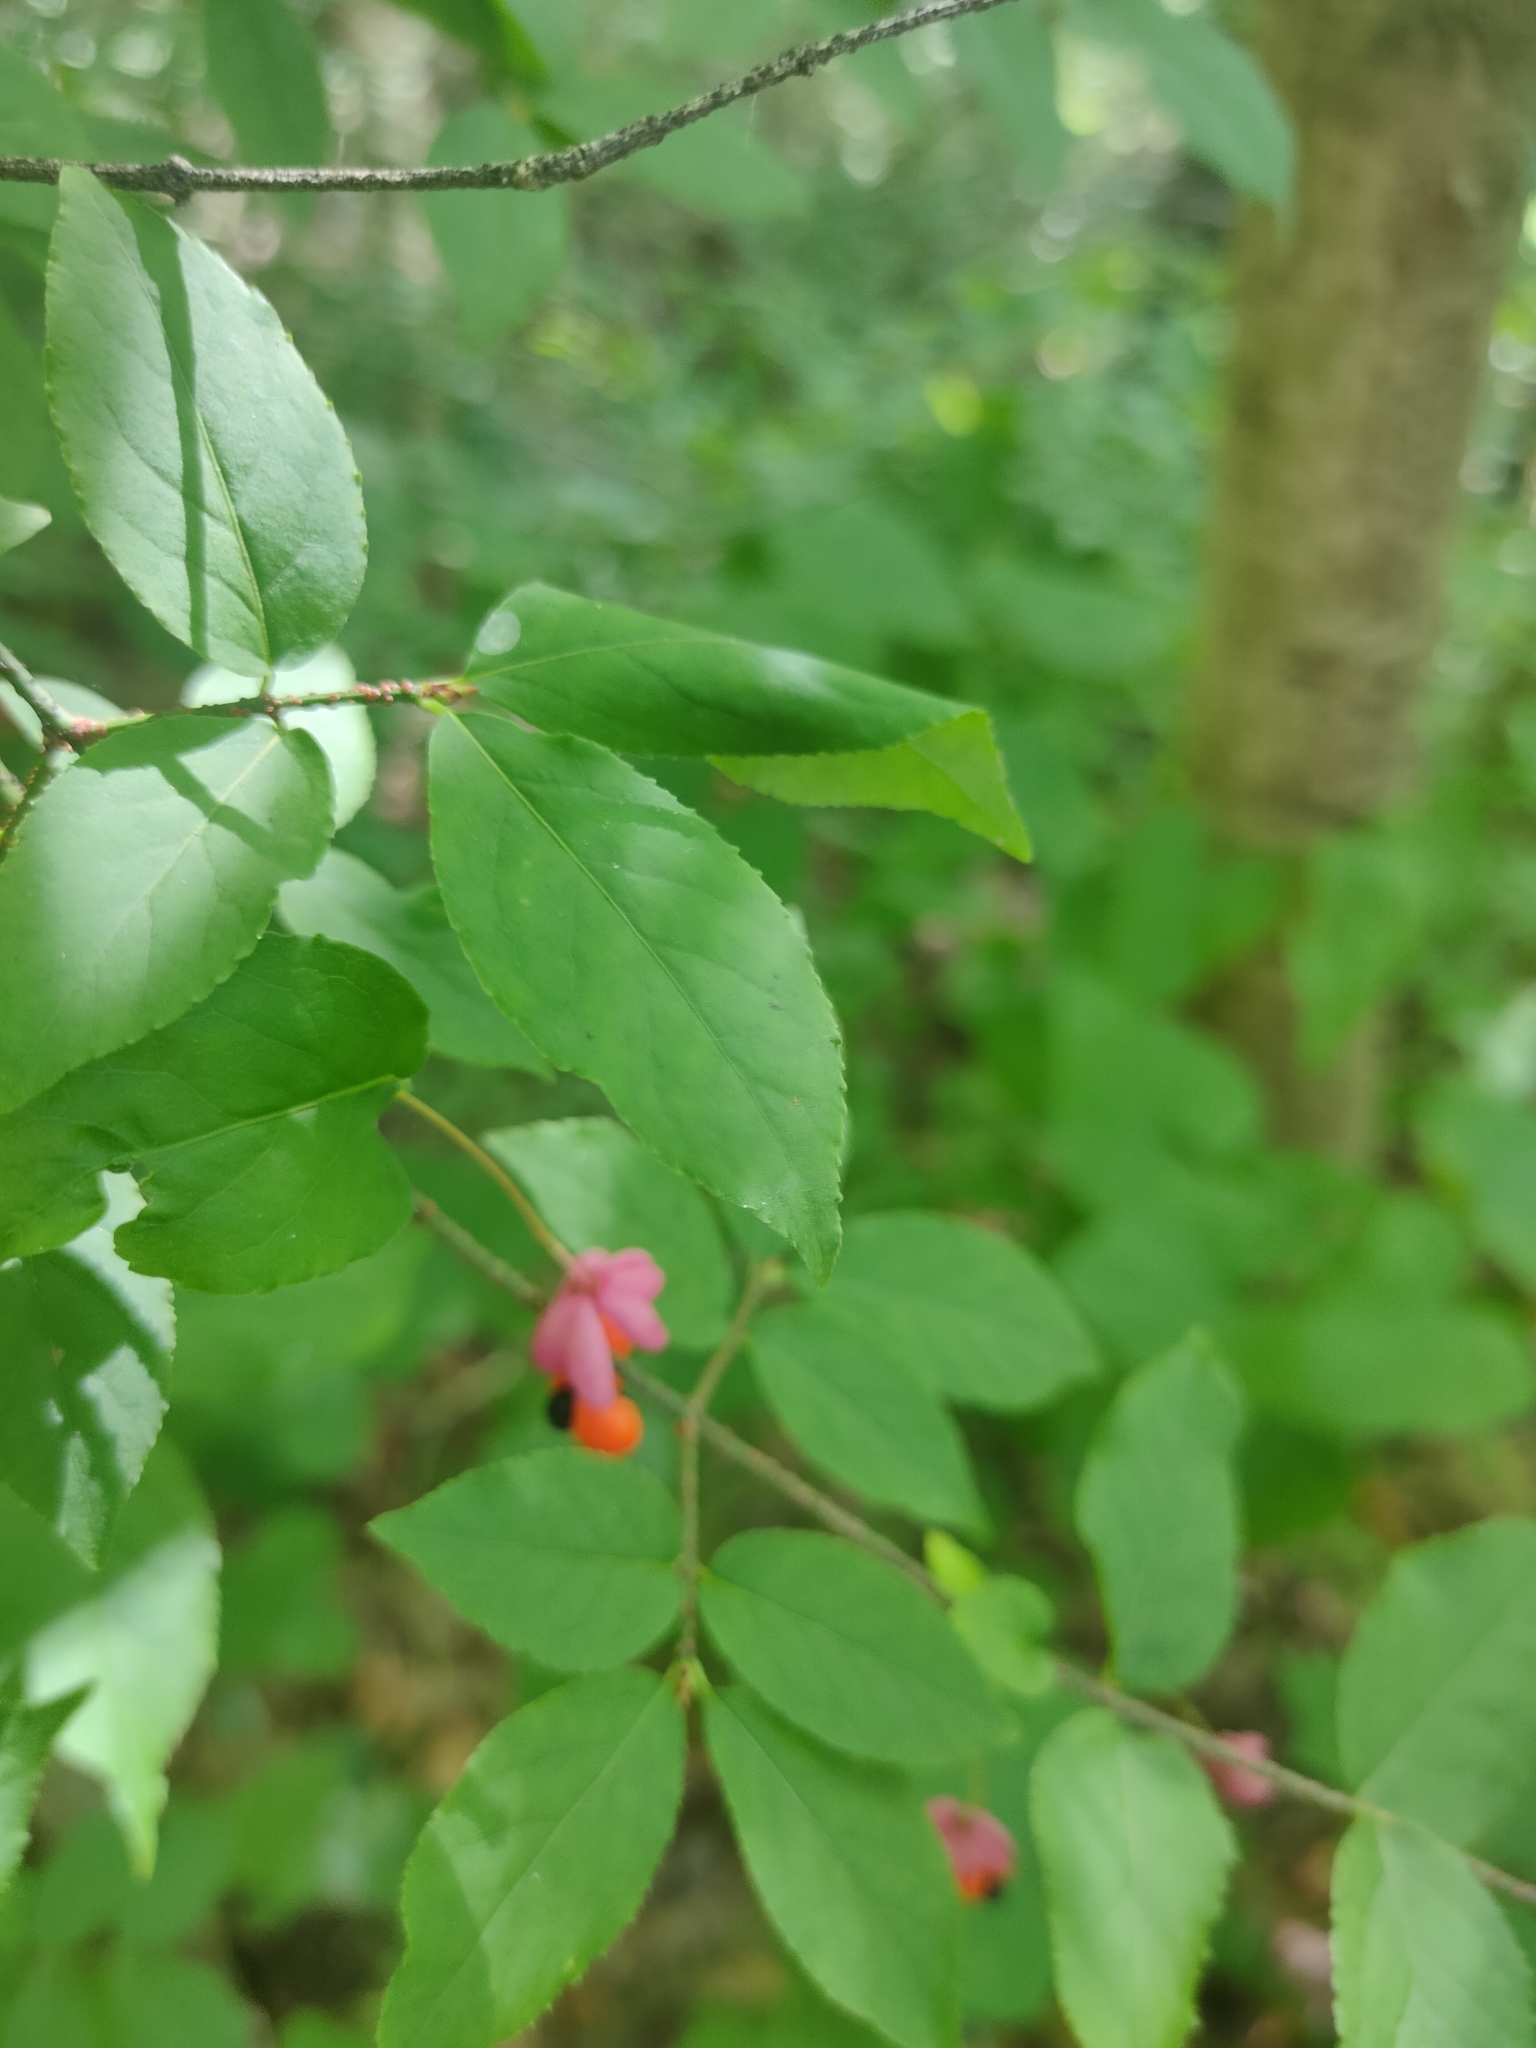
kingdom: Plantae
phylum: Tracheophyta
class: Magnoliopsida
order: Celastrales
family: Celastraceae
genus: Euonymus
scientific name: Euonymus verrucosus
